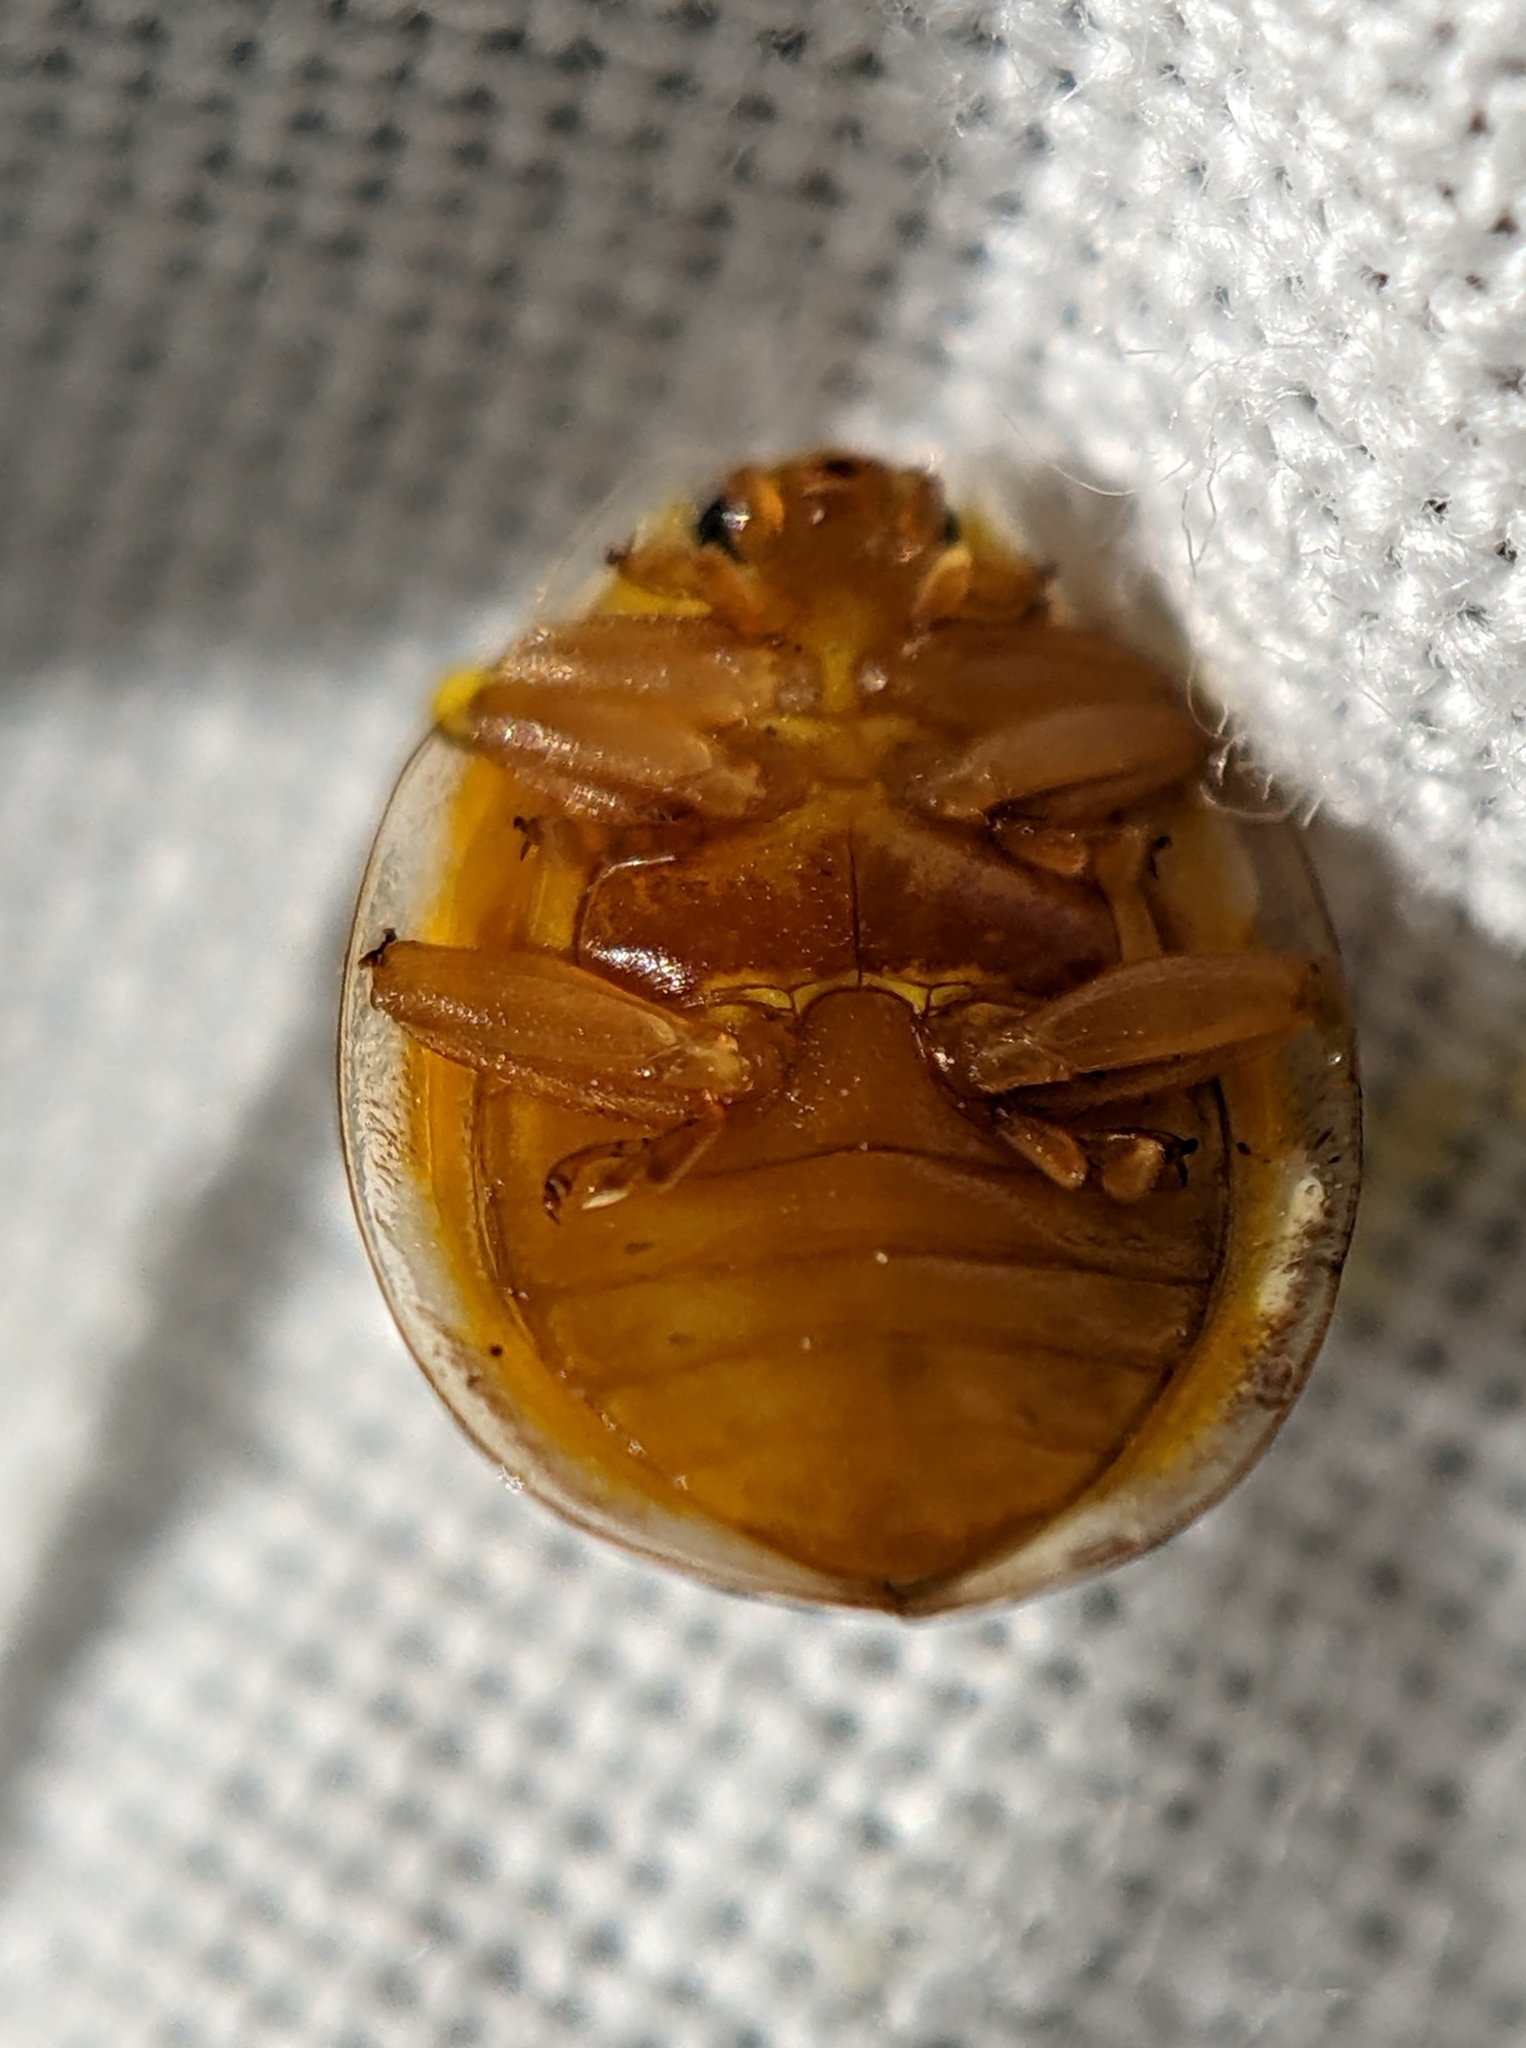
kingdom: Animalia
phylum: Arthropoda
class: Insecta
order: Coleoptera
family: Coccinellidae
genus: Halyzia
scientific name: Halyzia sedecimguttata
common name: Orange ladybird
